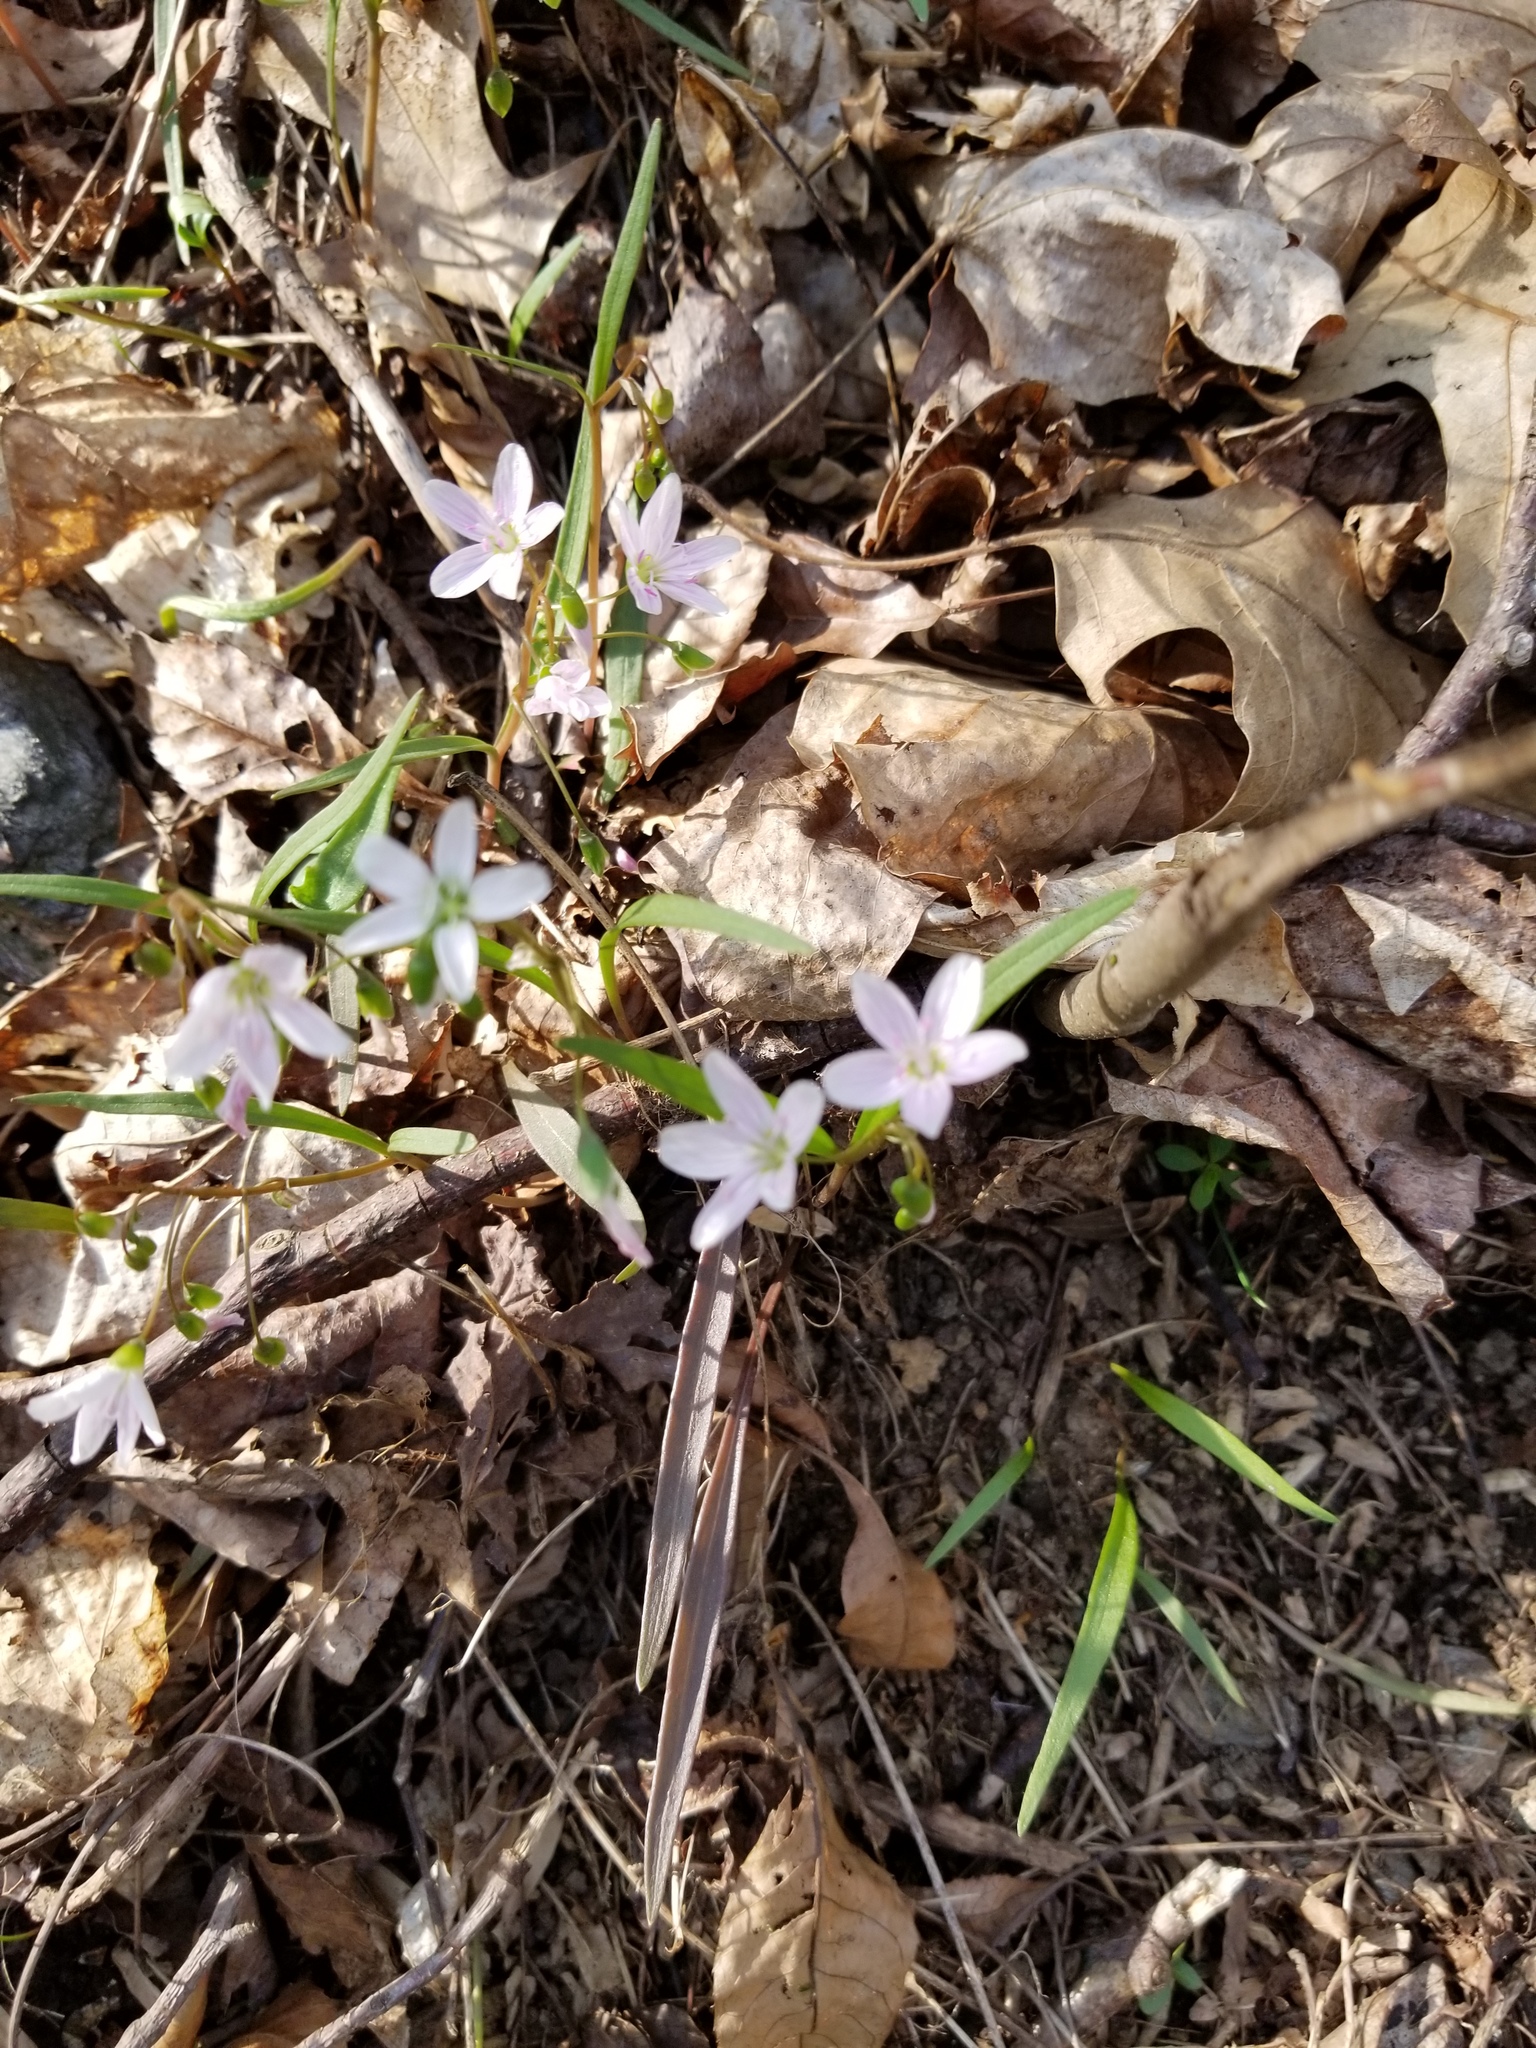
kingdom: Plantae
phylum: Tracheophyta
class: Magnoliopsida
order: Caryophyllales
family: Montiaceae
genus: Claytonia
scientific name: Claytonia virginica
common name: Virginia springbeauty
